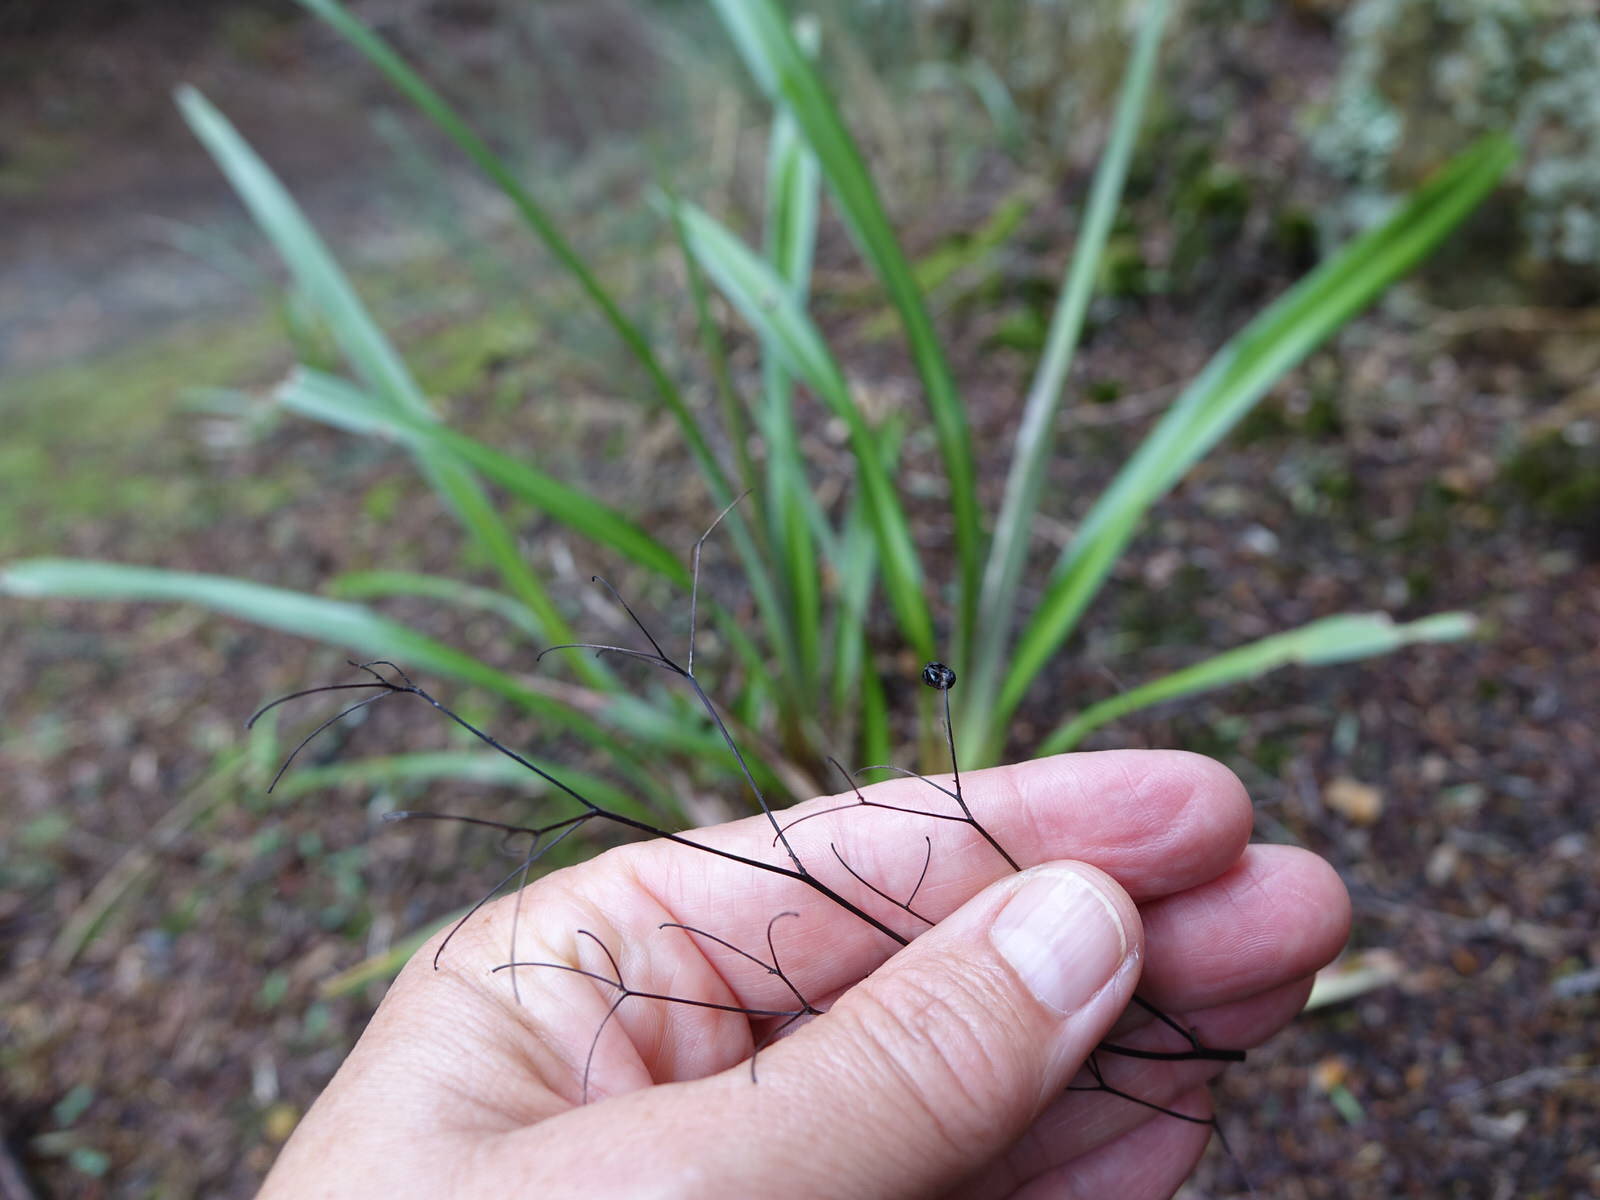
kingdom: Plantae
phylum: Tracheophyta
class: Liliopsida
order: Asparagales
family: Asphodelaceae
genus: Dianella
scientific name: Dianella nigra
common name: New zealand-blueberry
